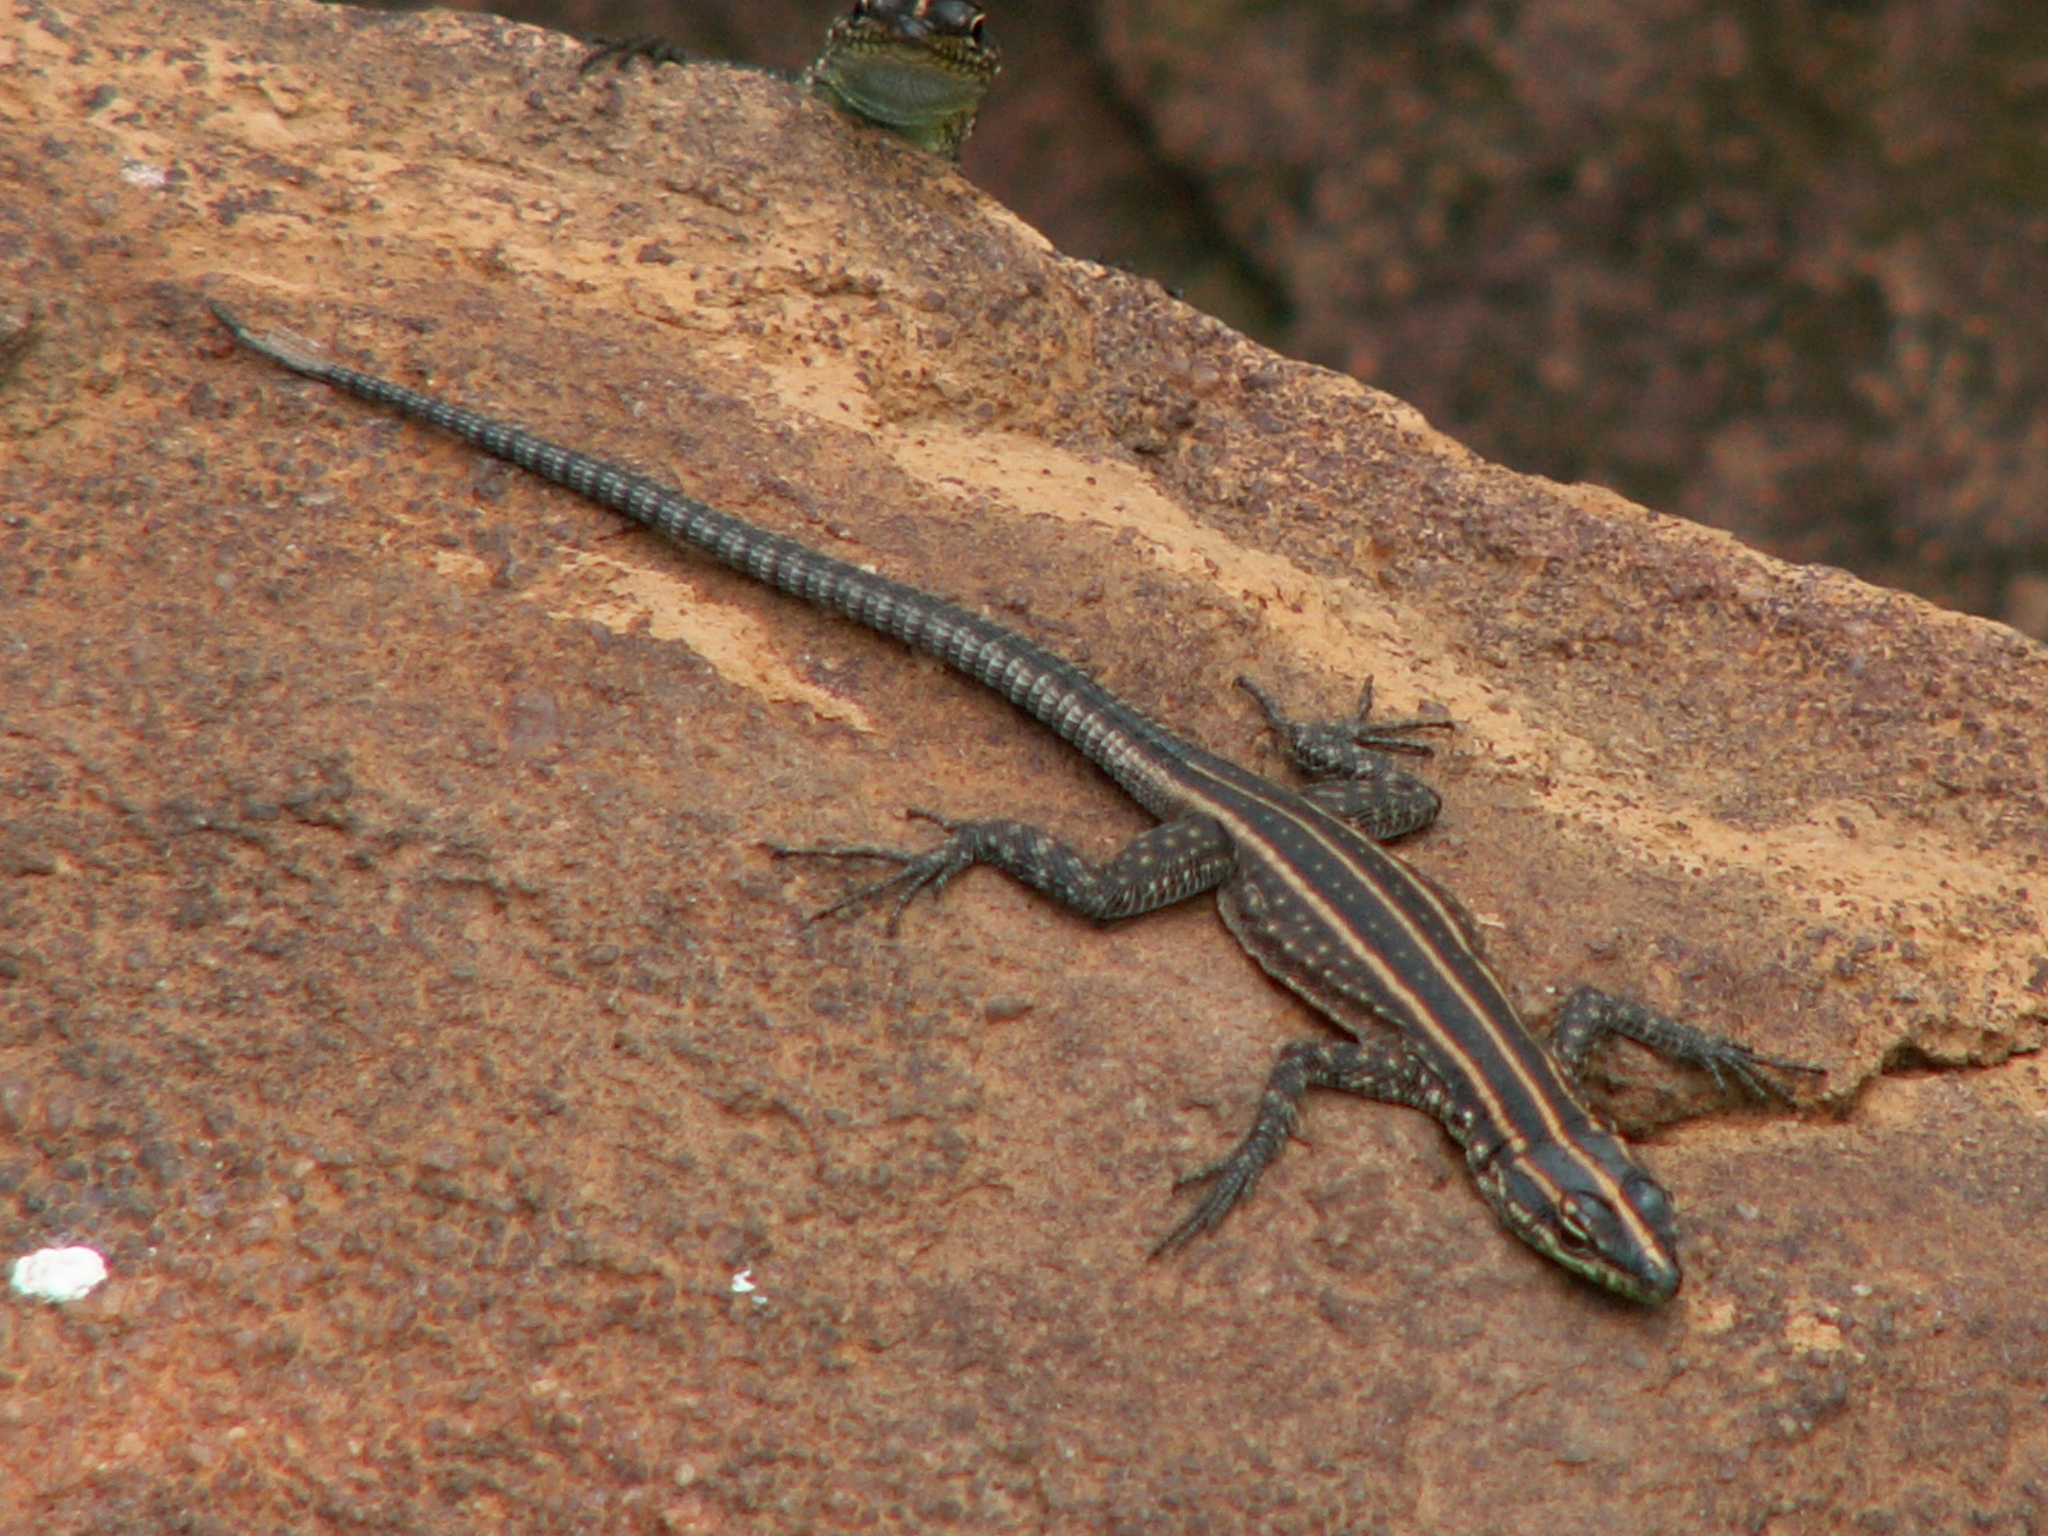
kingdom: Animalia
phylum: Chordata
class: Squamata
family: Cordylidae
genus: Platysaurus
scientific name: Platysaurus minor
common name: Waterberg flat lizard
